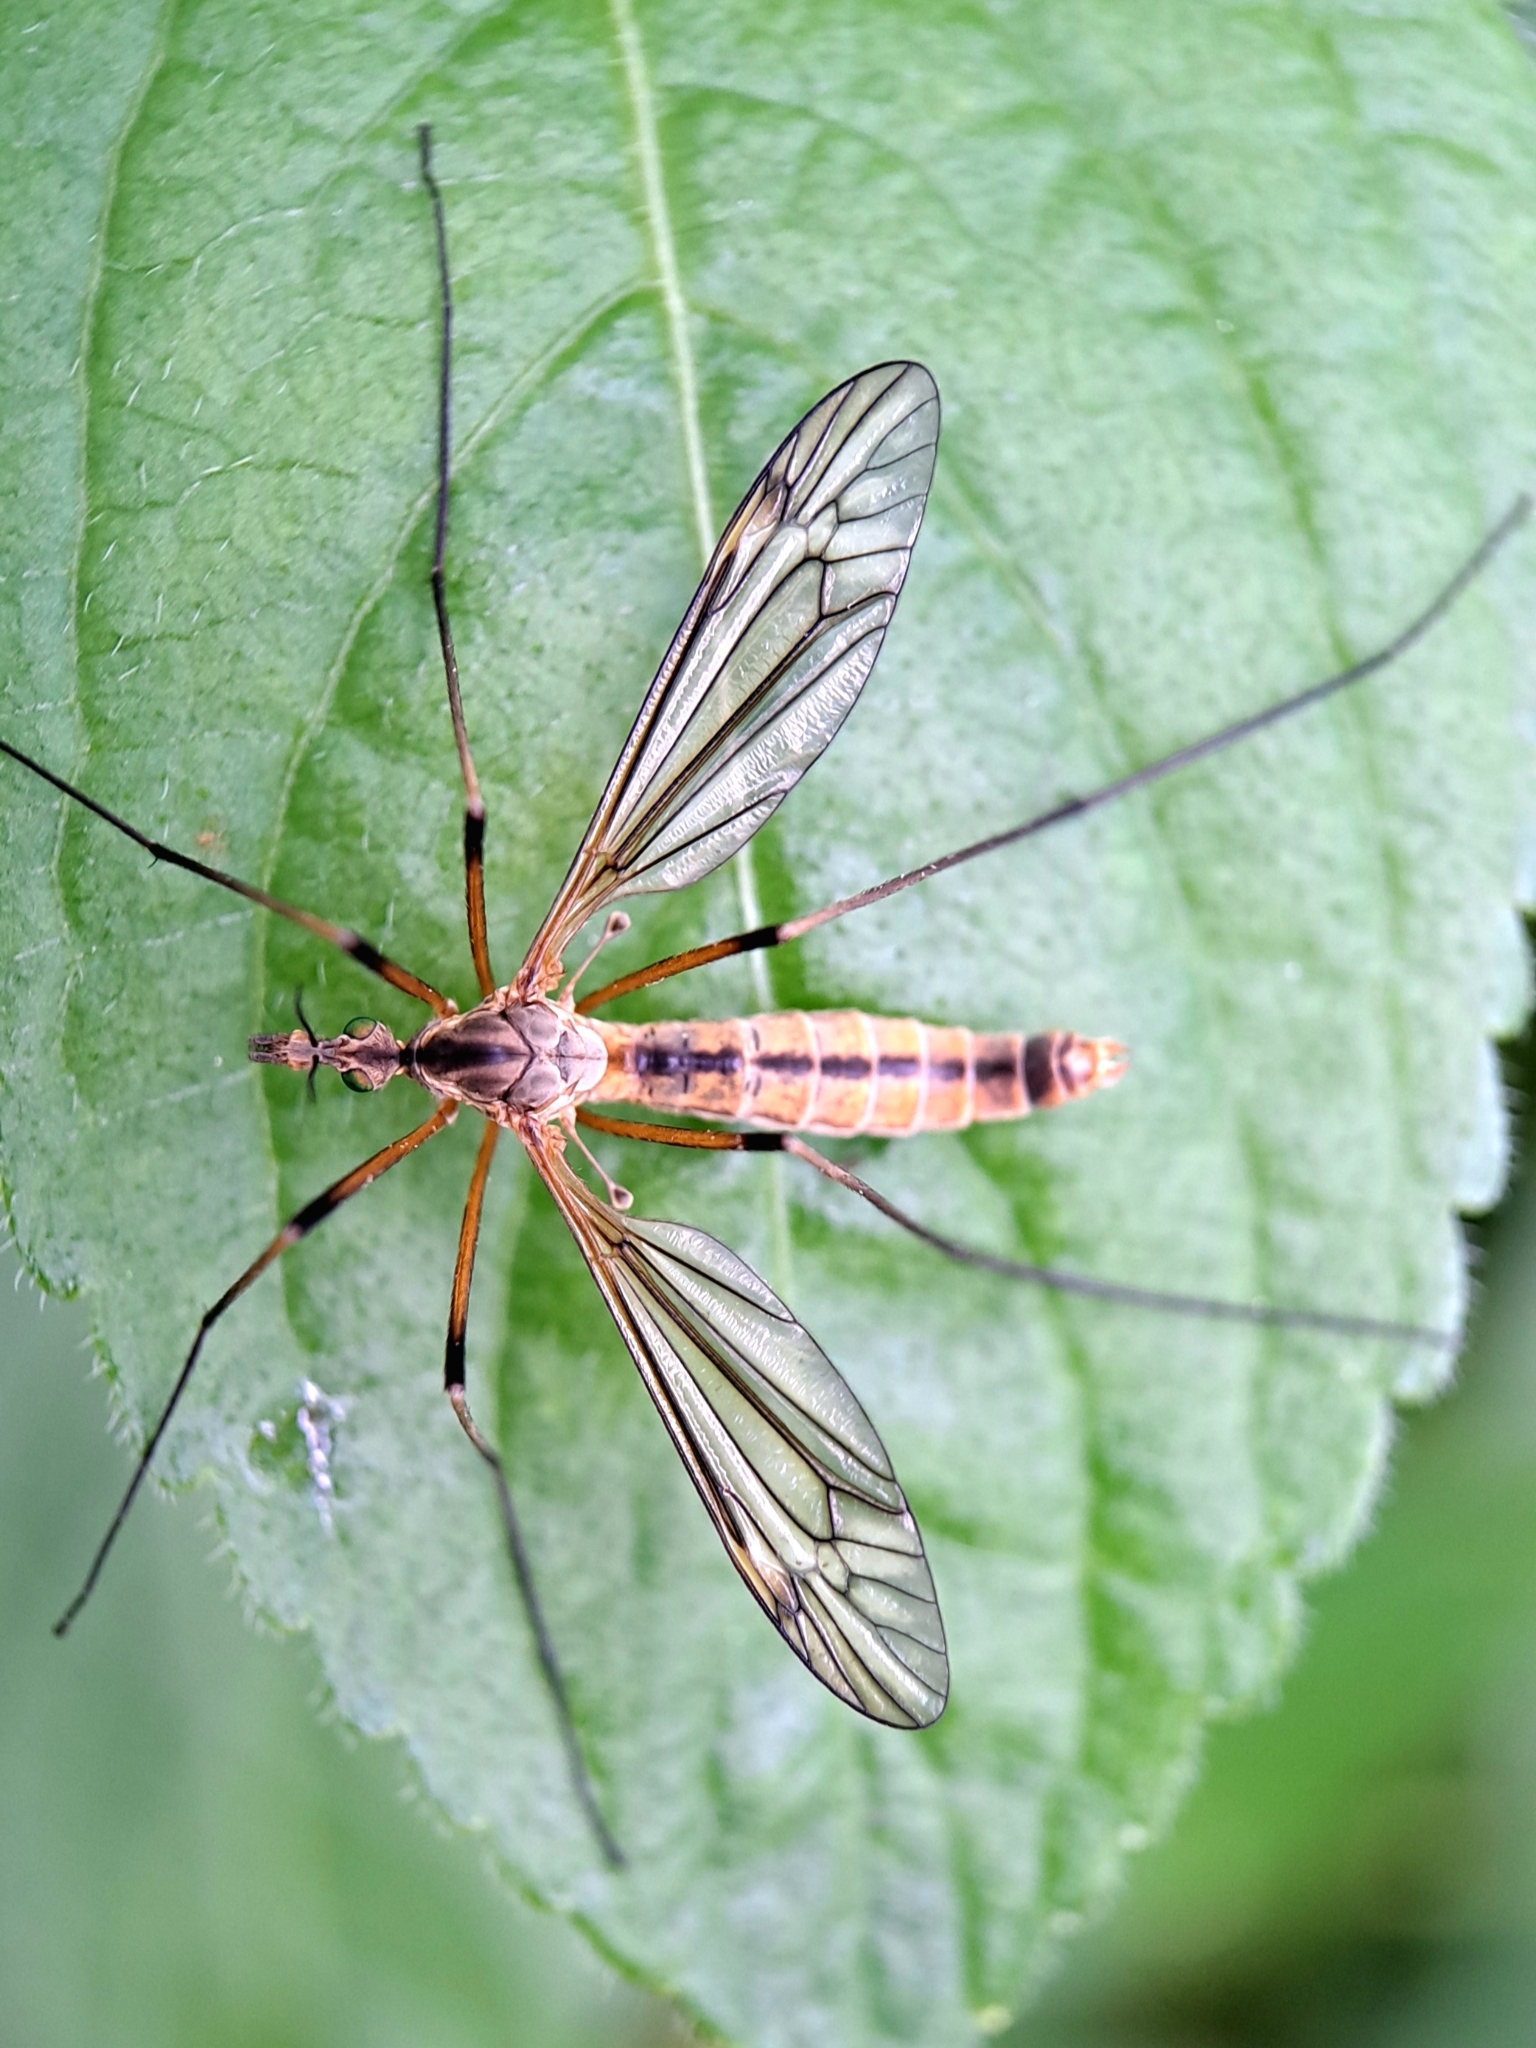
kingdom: Animalia
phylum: Arthropoda
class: Insecta
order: Diptera
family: Tipulidae
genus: Tipula
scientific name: Tipula vernalis
